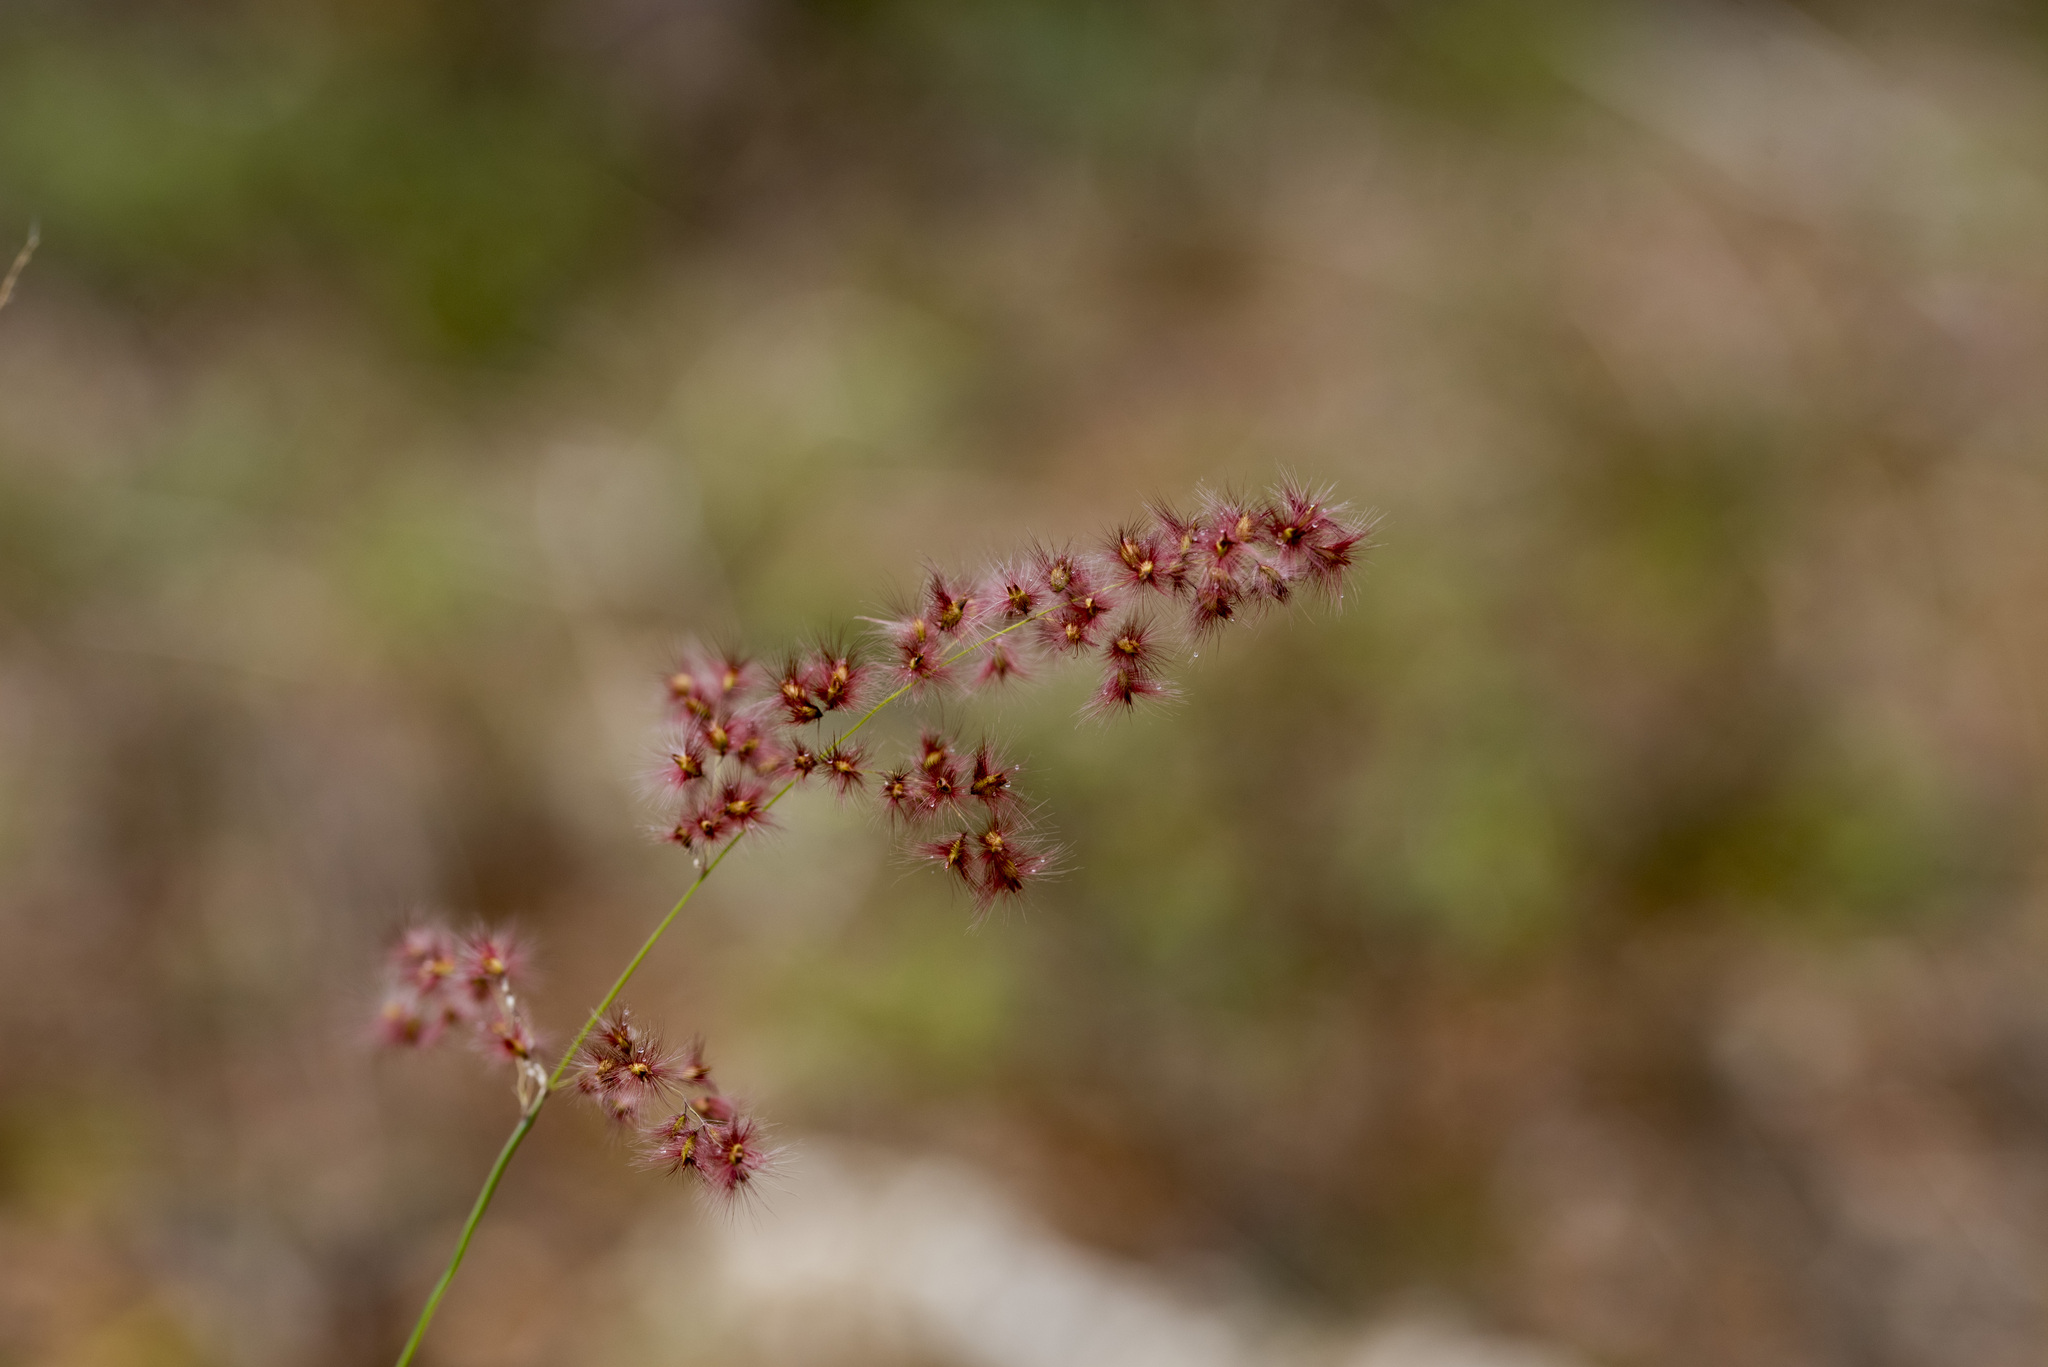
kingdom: Plantae
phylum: Tracheophyta
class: Liliopsida
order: Poales
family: Poaceae
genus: Melinis
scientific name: Melinis repens
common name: Rose natal grass
